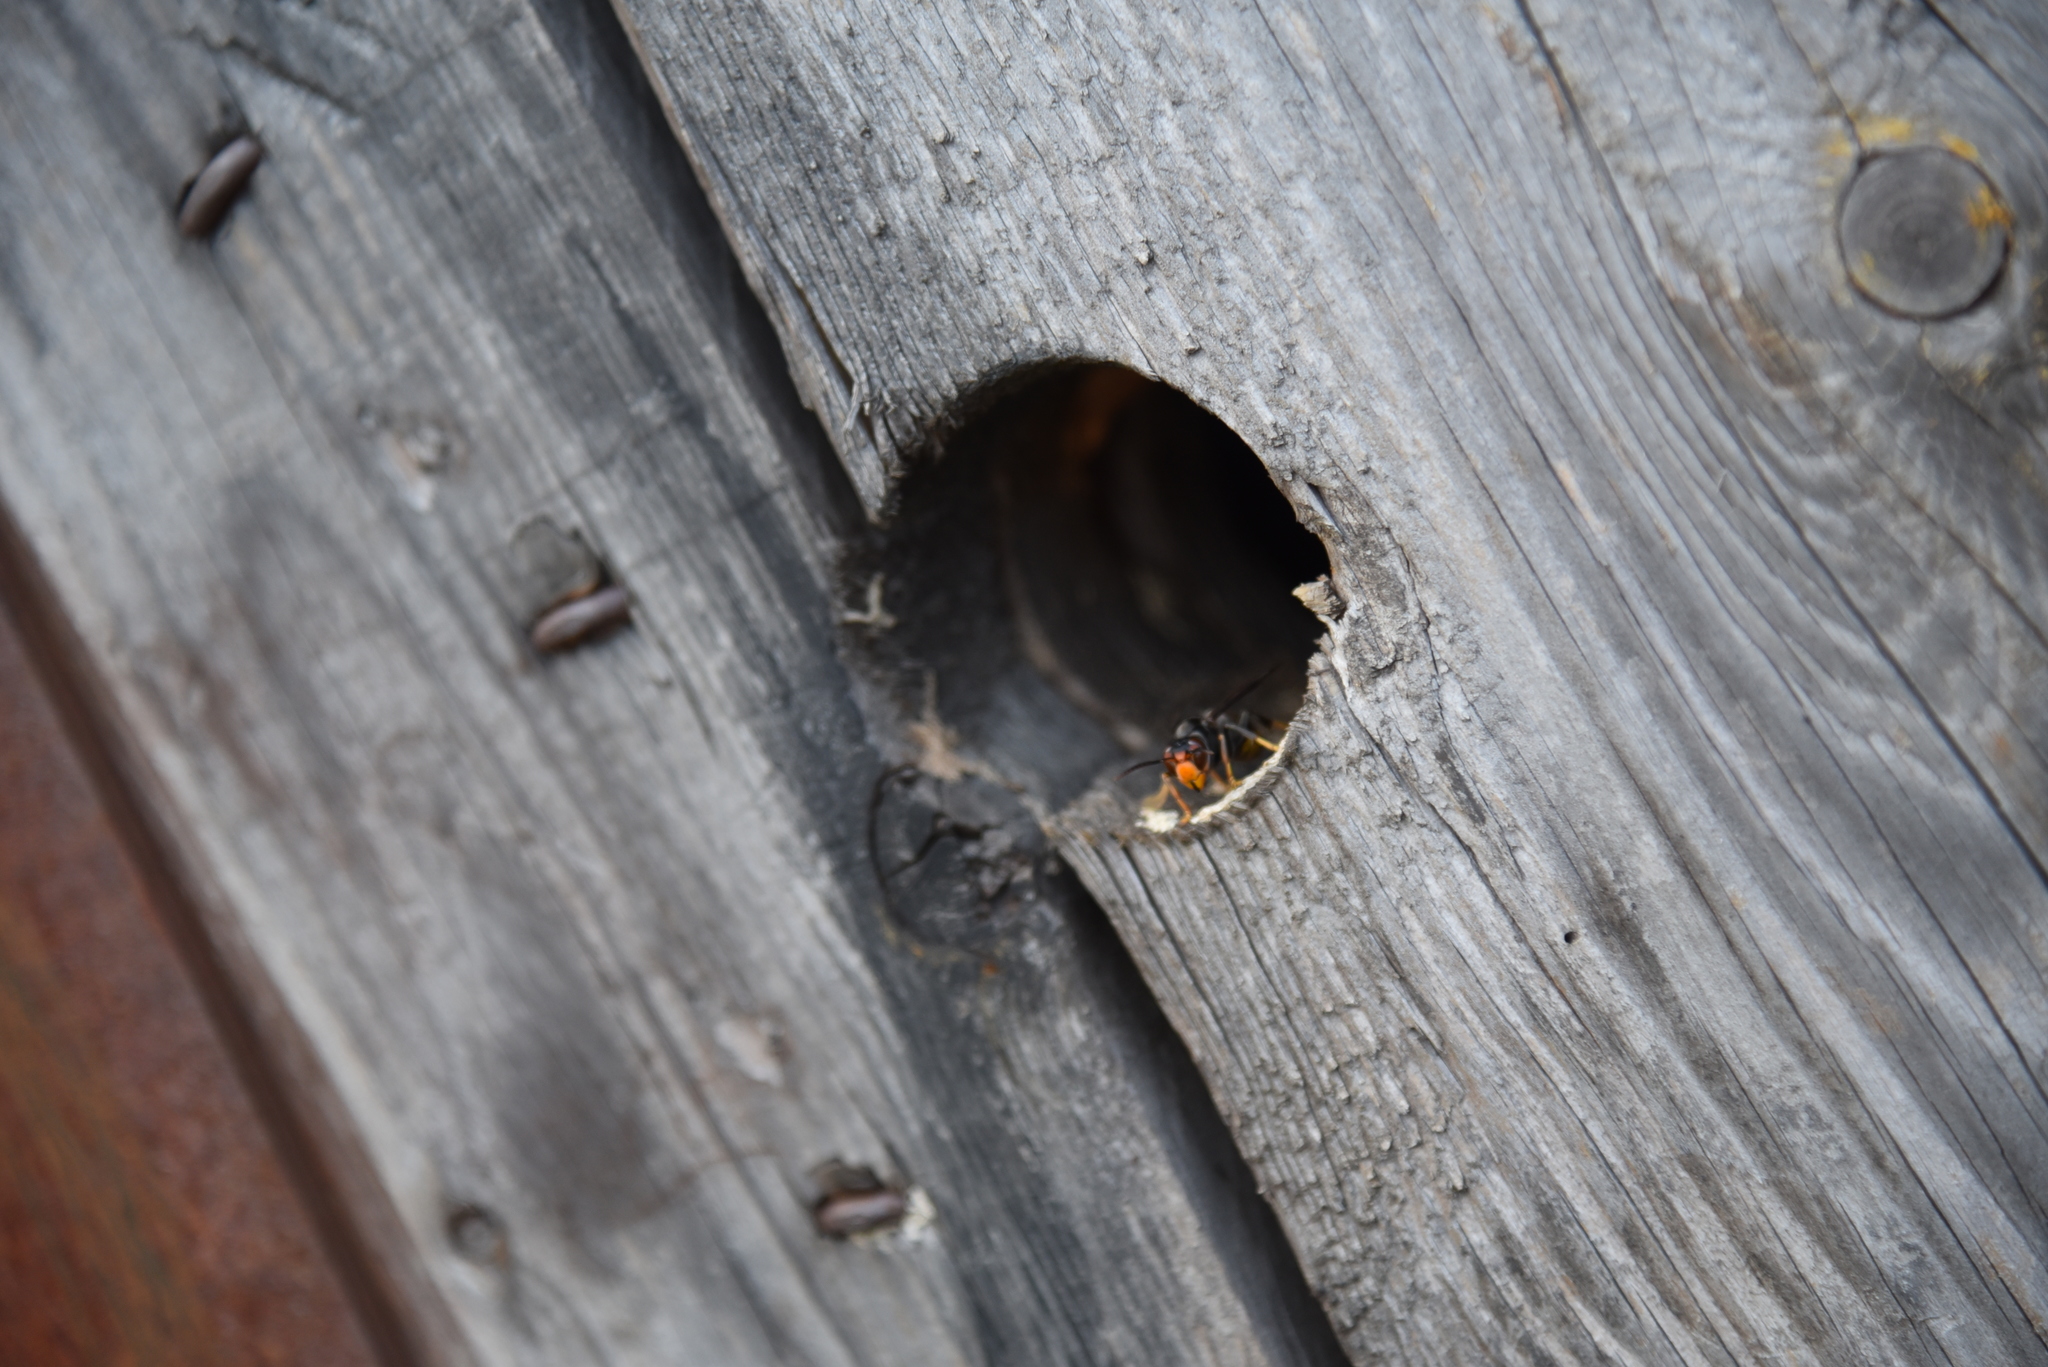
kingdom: Animalia
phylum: Arthropoda
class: Insecta
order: Hymenoptera
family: Vespidae
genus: Vespa
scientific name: Vespa velutina
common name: Asian hornet
